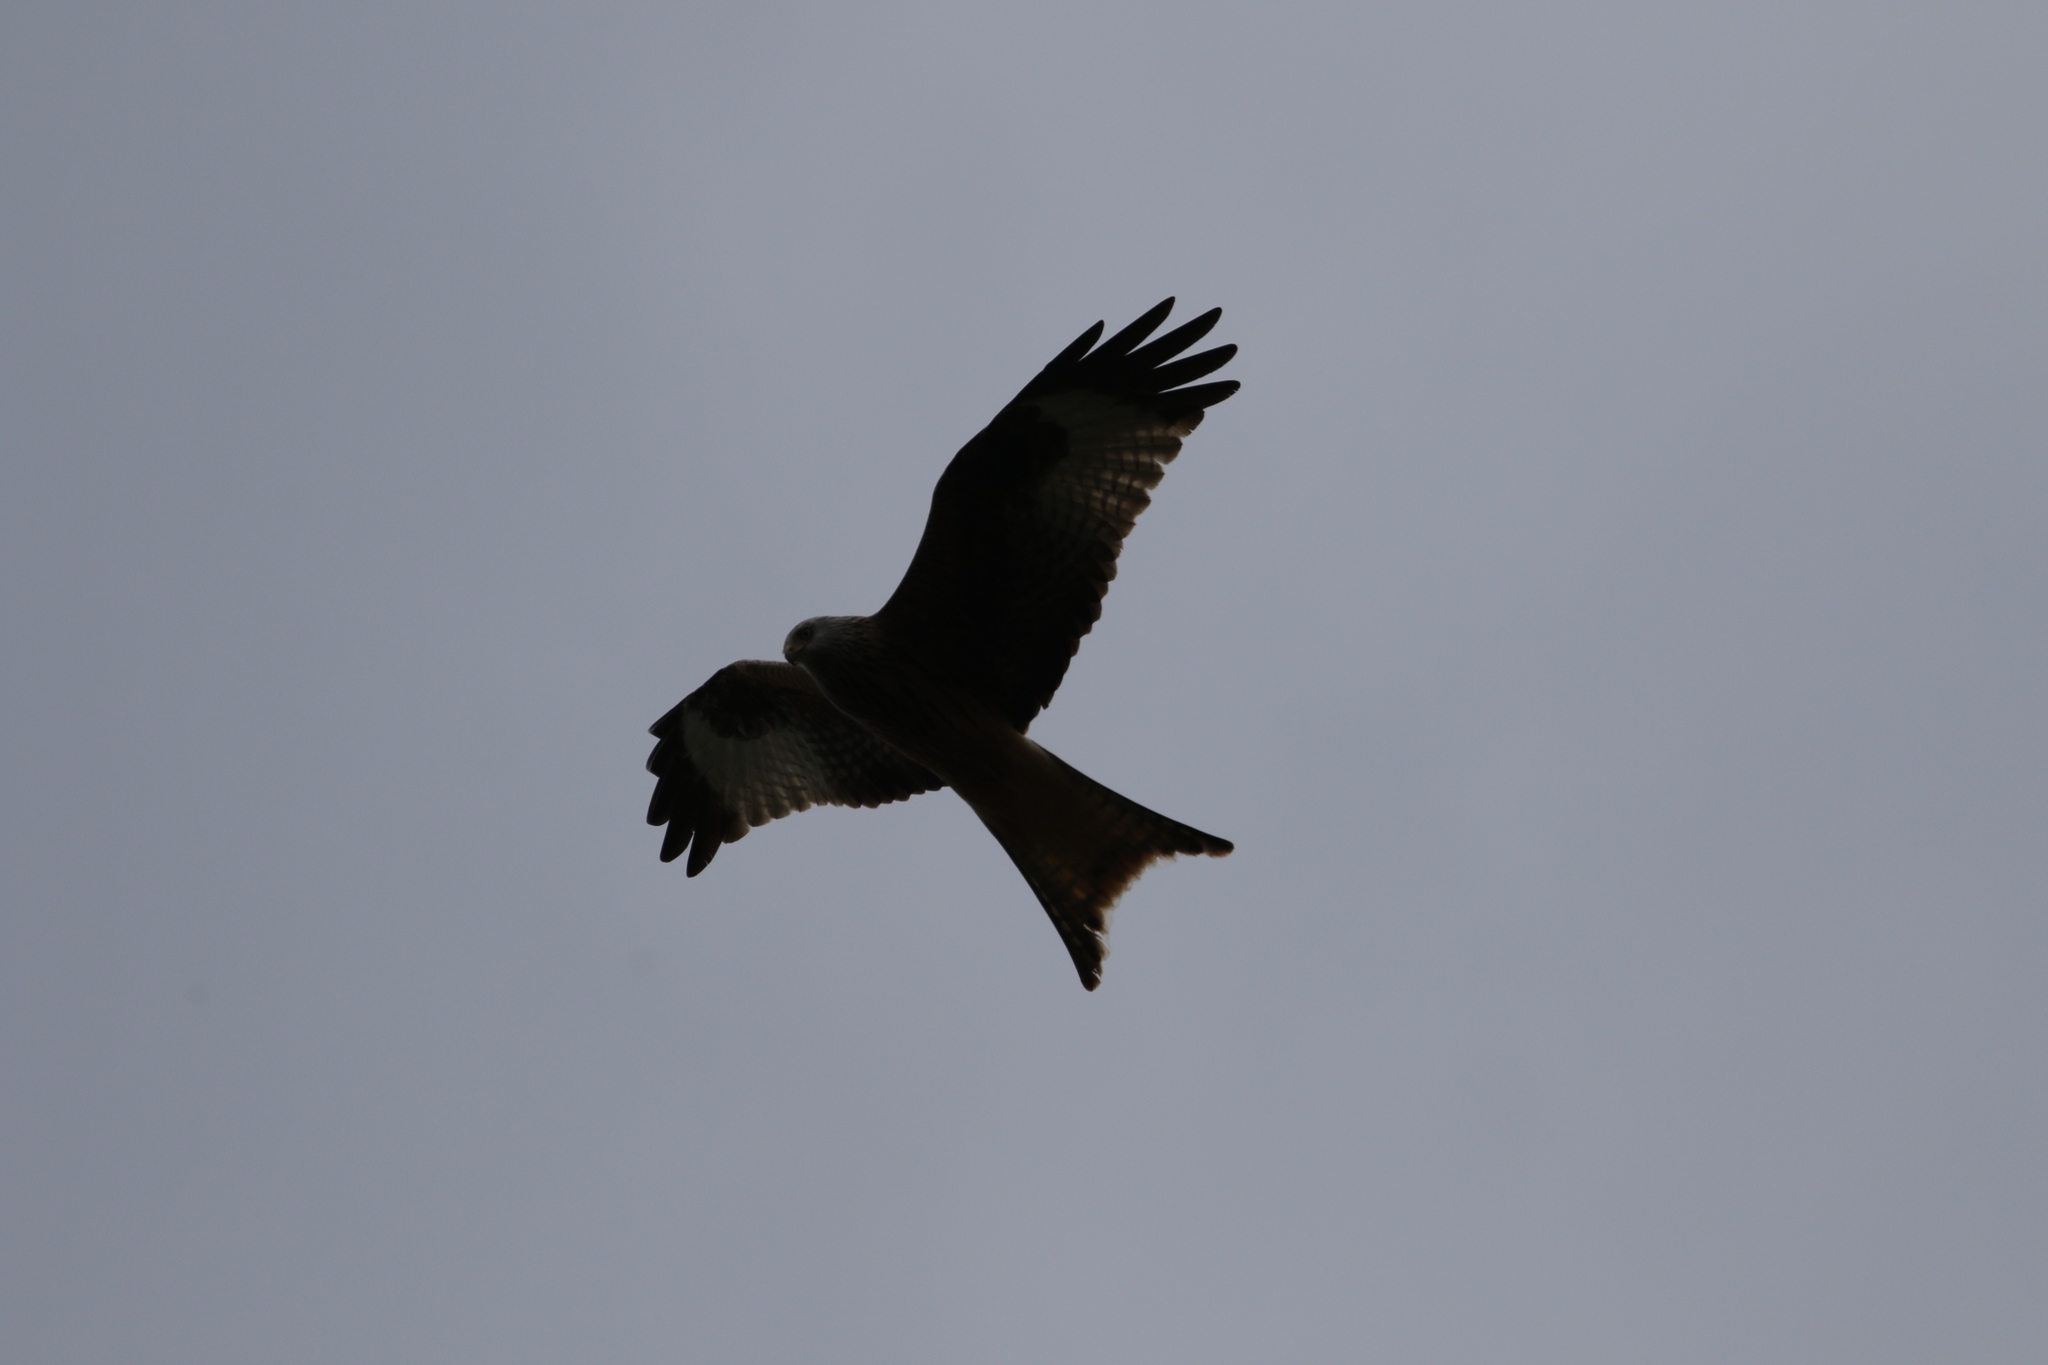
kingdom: Animalia
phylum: Chordata
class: Aves
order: Accipitriformes
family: Accipitridae
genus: Milvus
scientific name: Milvus milvus
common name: Red kite
